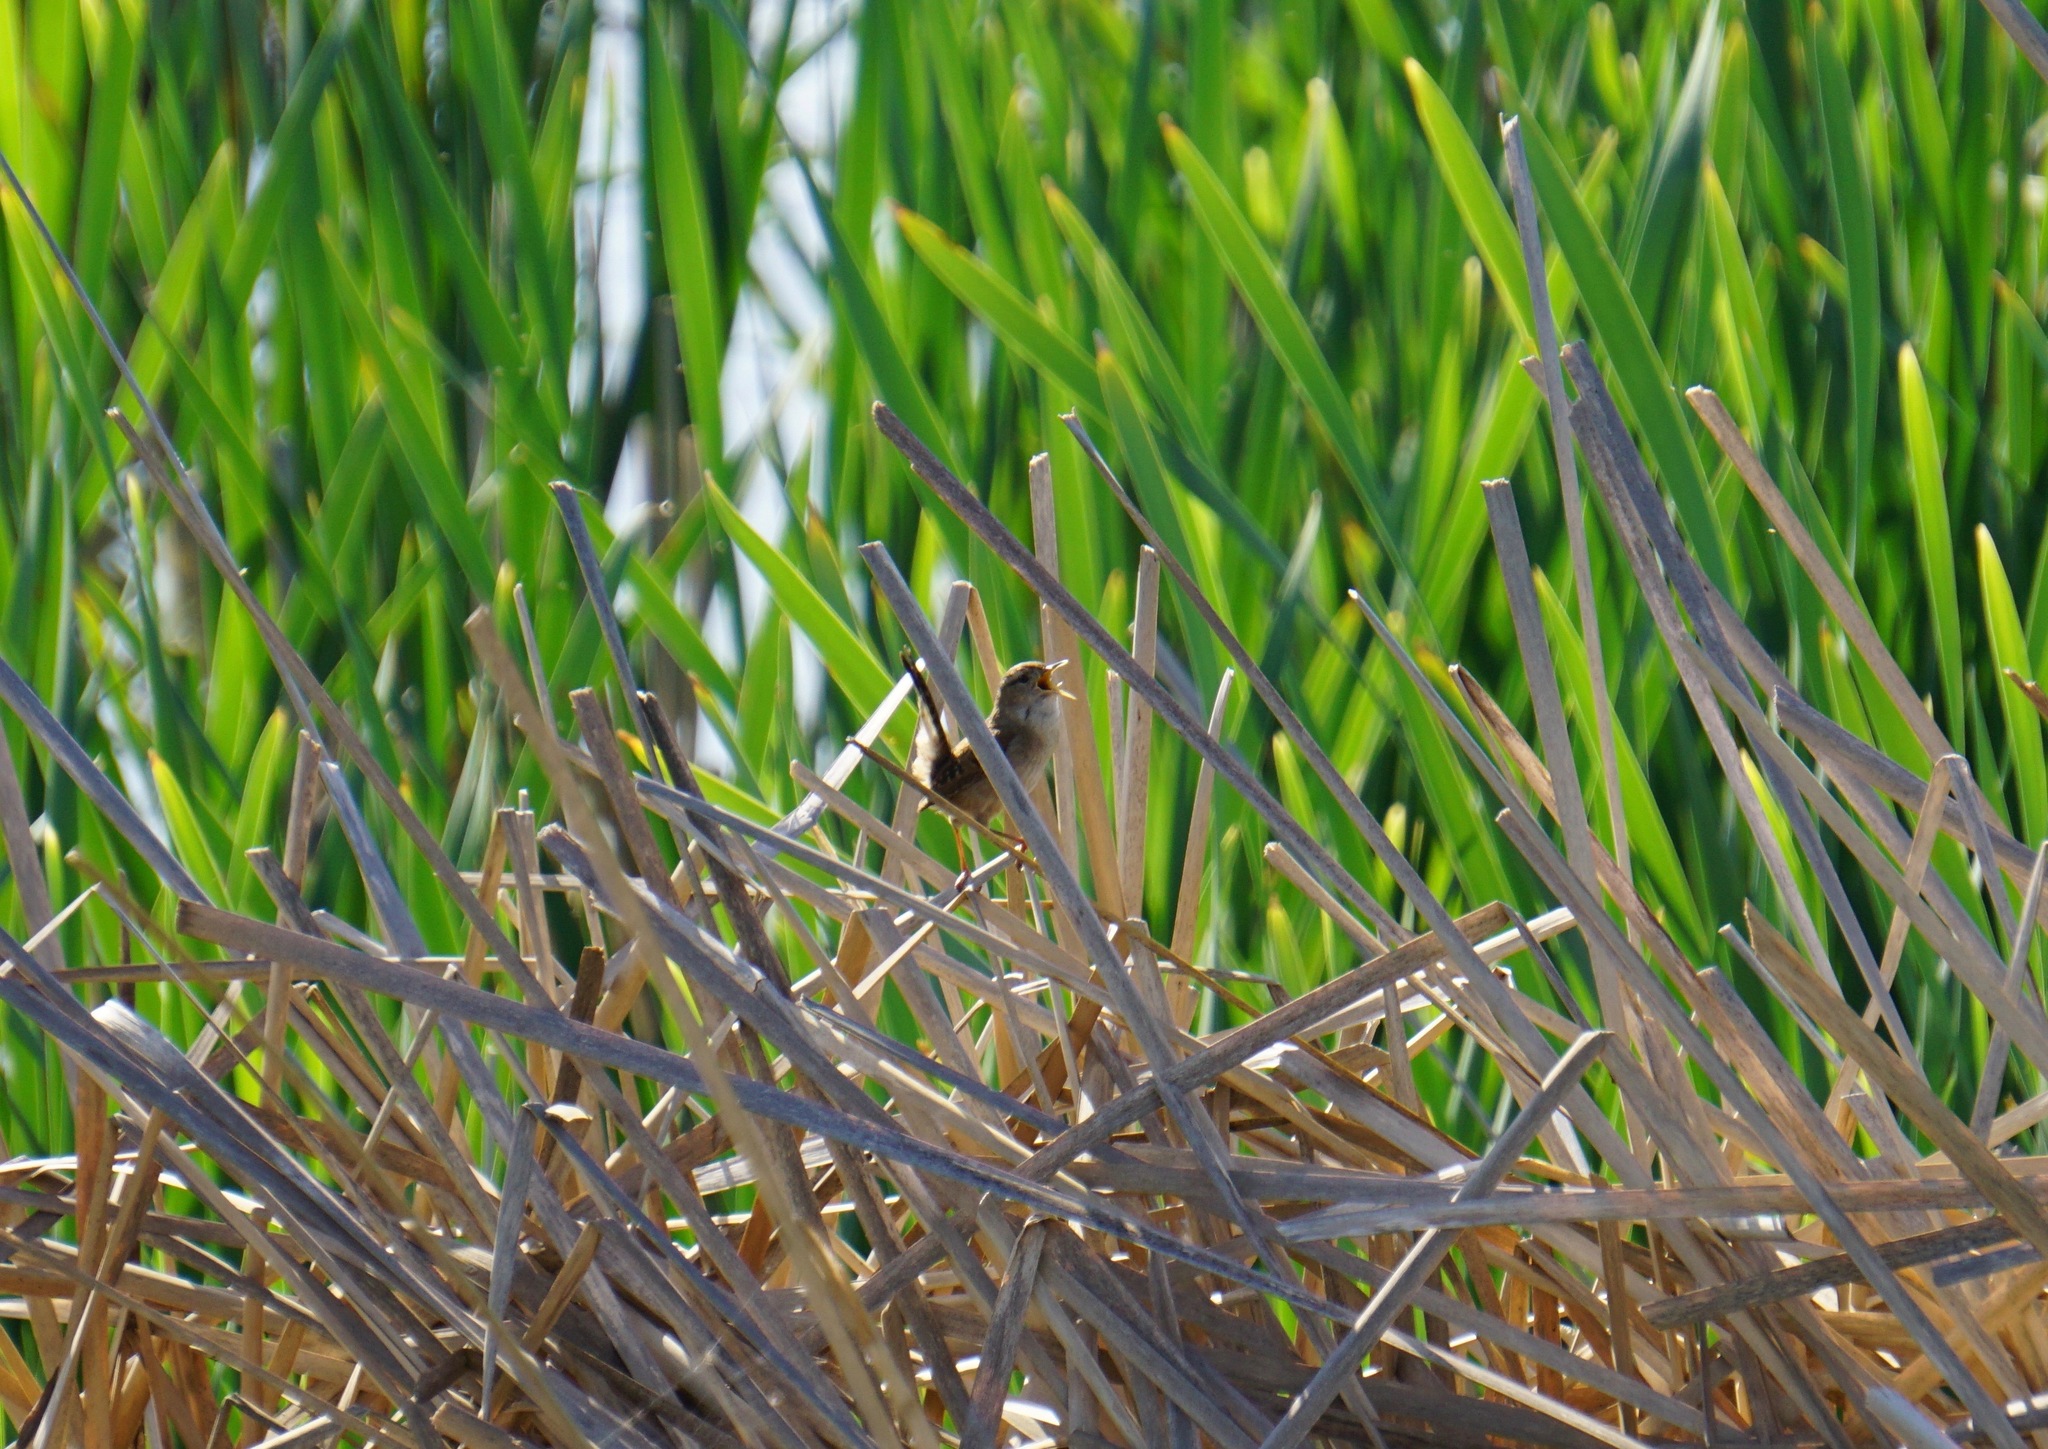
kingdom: Animalia
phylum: Chordata
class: Aves
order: Passeriformes
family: Troglodytidae
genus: Cistothorus
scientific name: Cistothorus palustris
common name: Marsh wren
